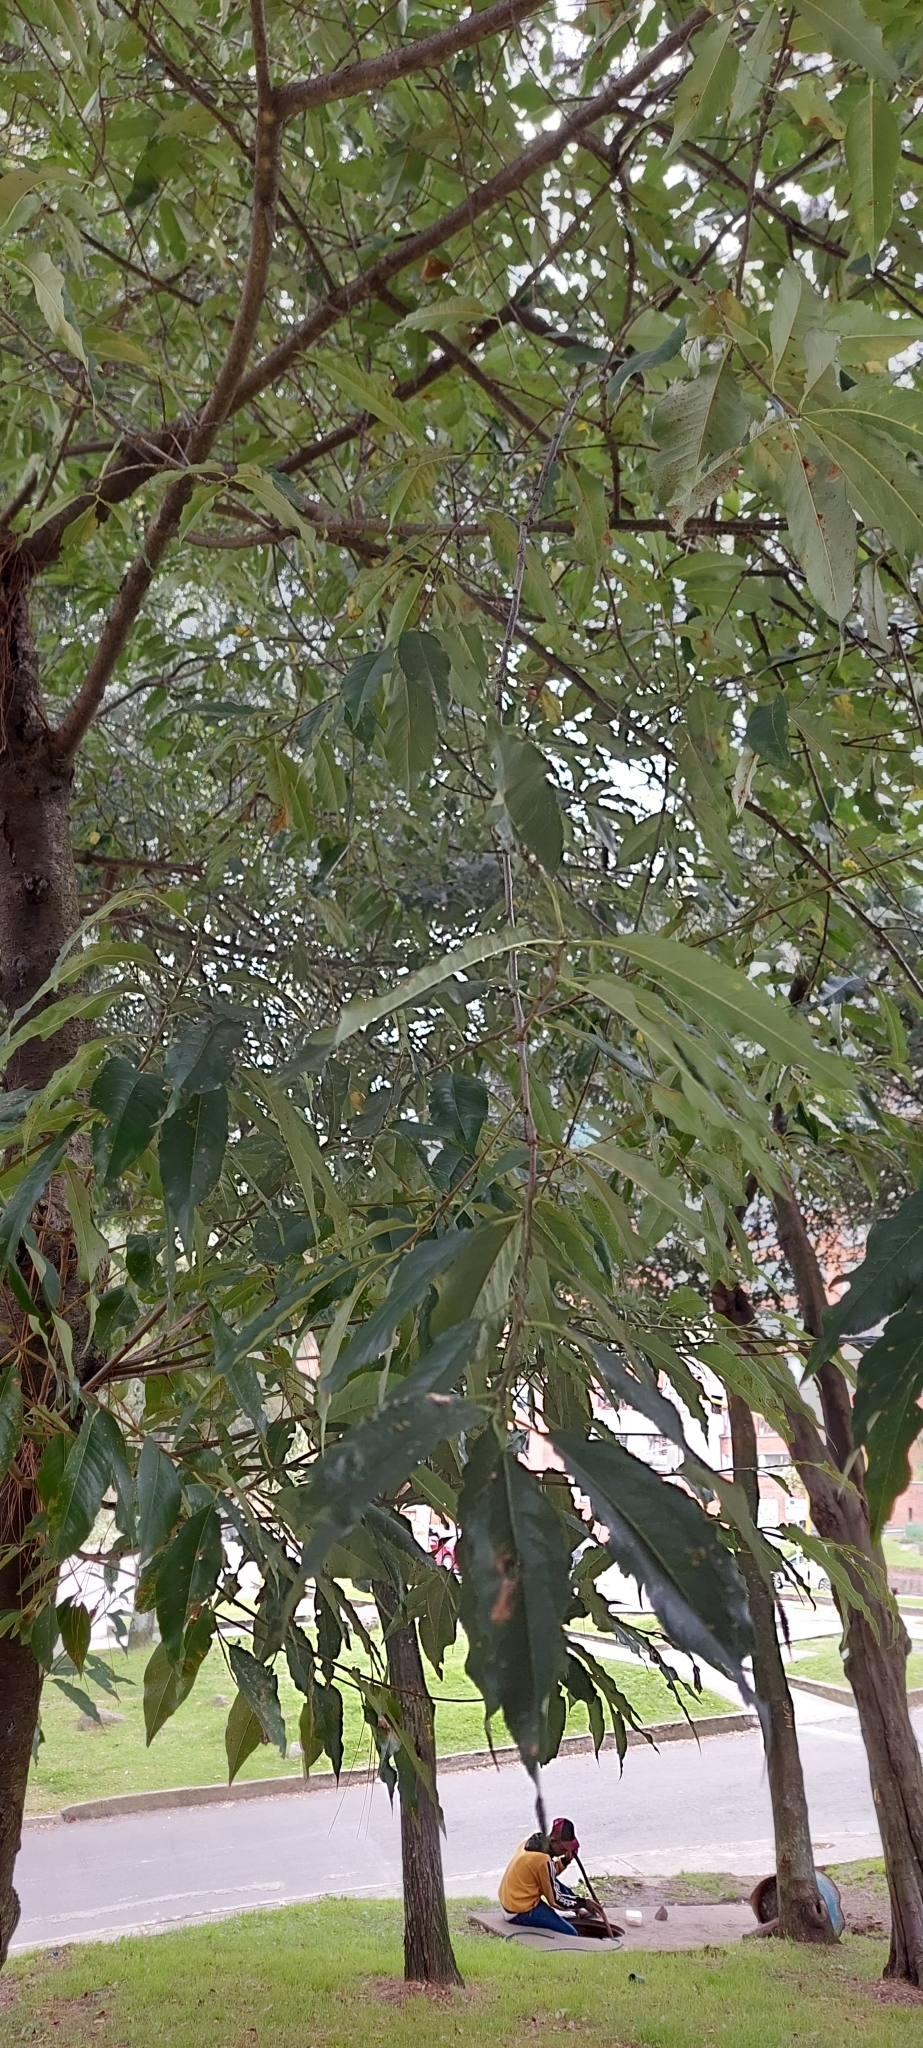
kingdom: Plantae
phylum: Tracheophyta
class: Magnoliopsida
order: Rosales
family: Rosaceae
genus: Prunus
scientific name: Prunus serotina
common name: Black cherry
